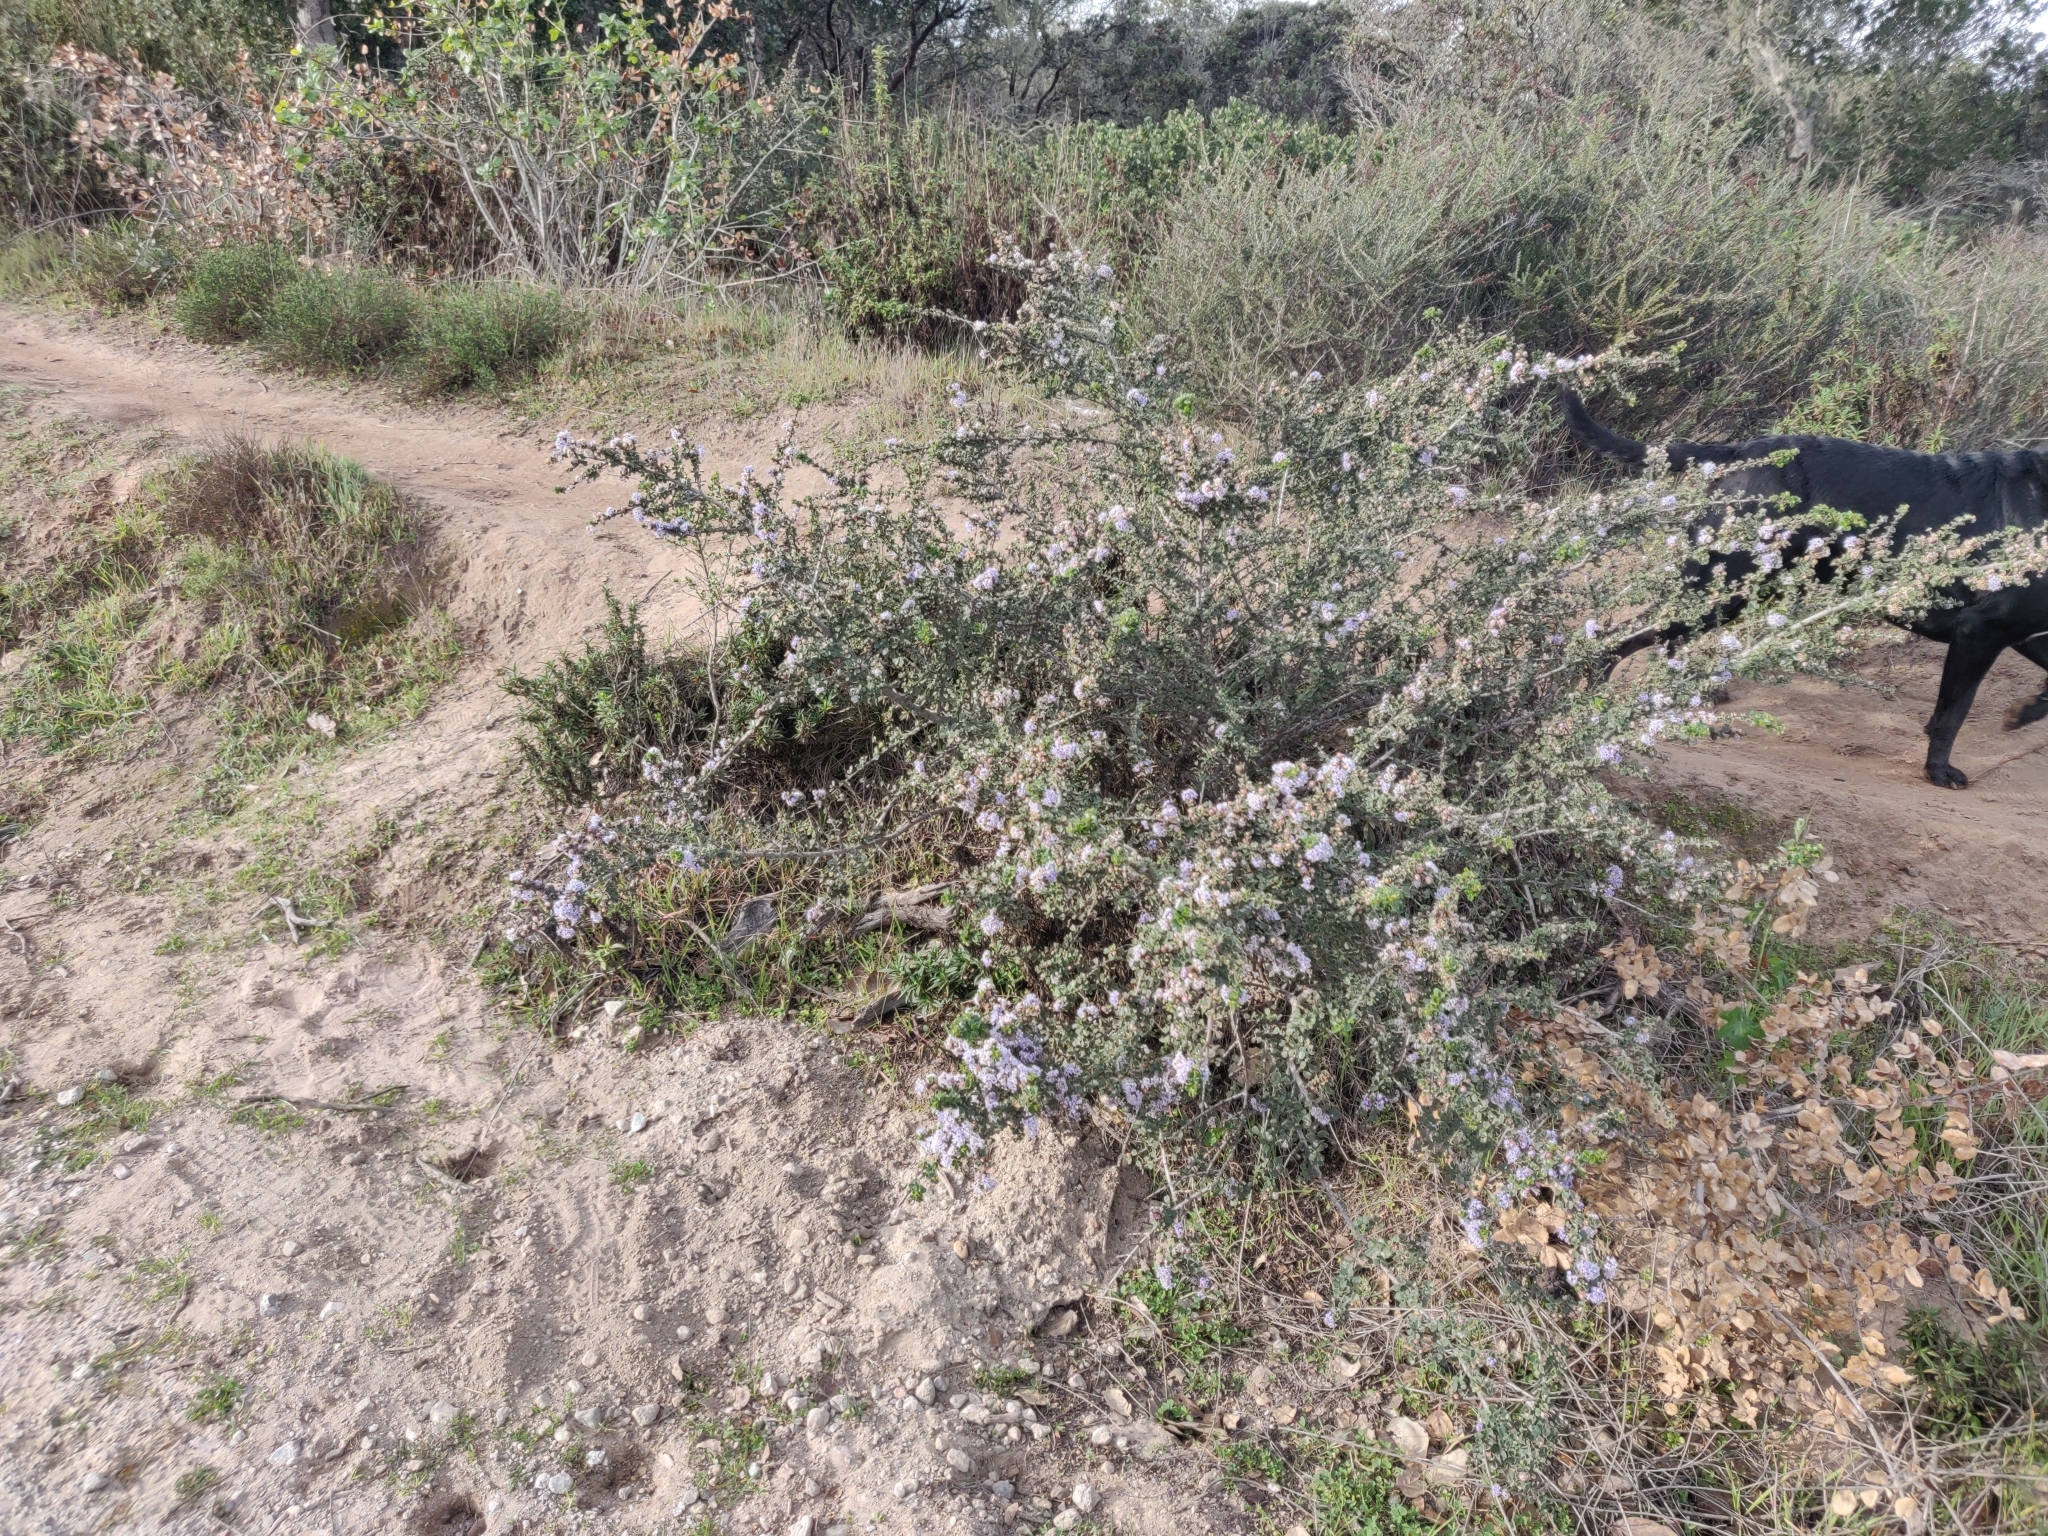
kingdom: Plantae
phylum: Tracheophyta
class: Magnoliopsida
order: Rosales
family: Rhamnaceae
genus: Ceanothus
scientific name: Ceanothus cuneatus
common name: Cuneate ceanothus
